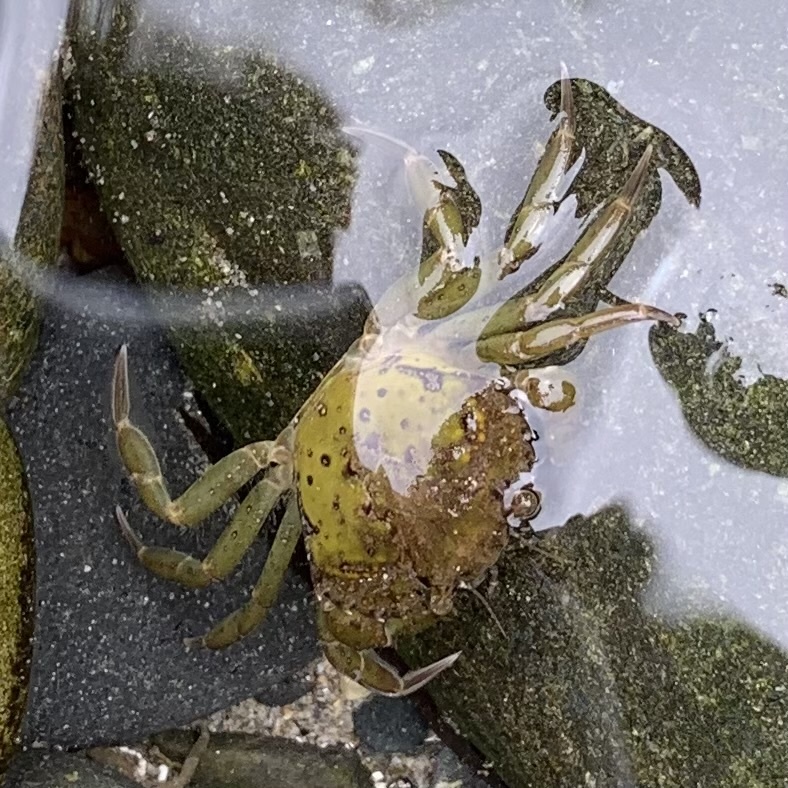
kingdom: Animalia
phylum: Arthropoda
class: Malacostraca
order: Decapoda
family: Carcinidae
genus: Carcinus
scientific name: Carcinus maenas
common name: European green crab
